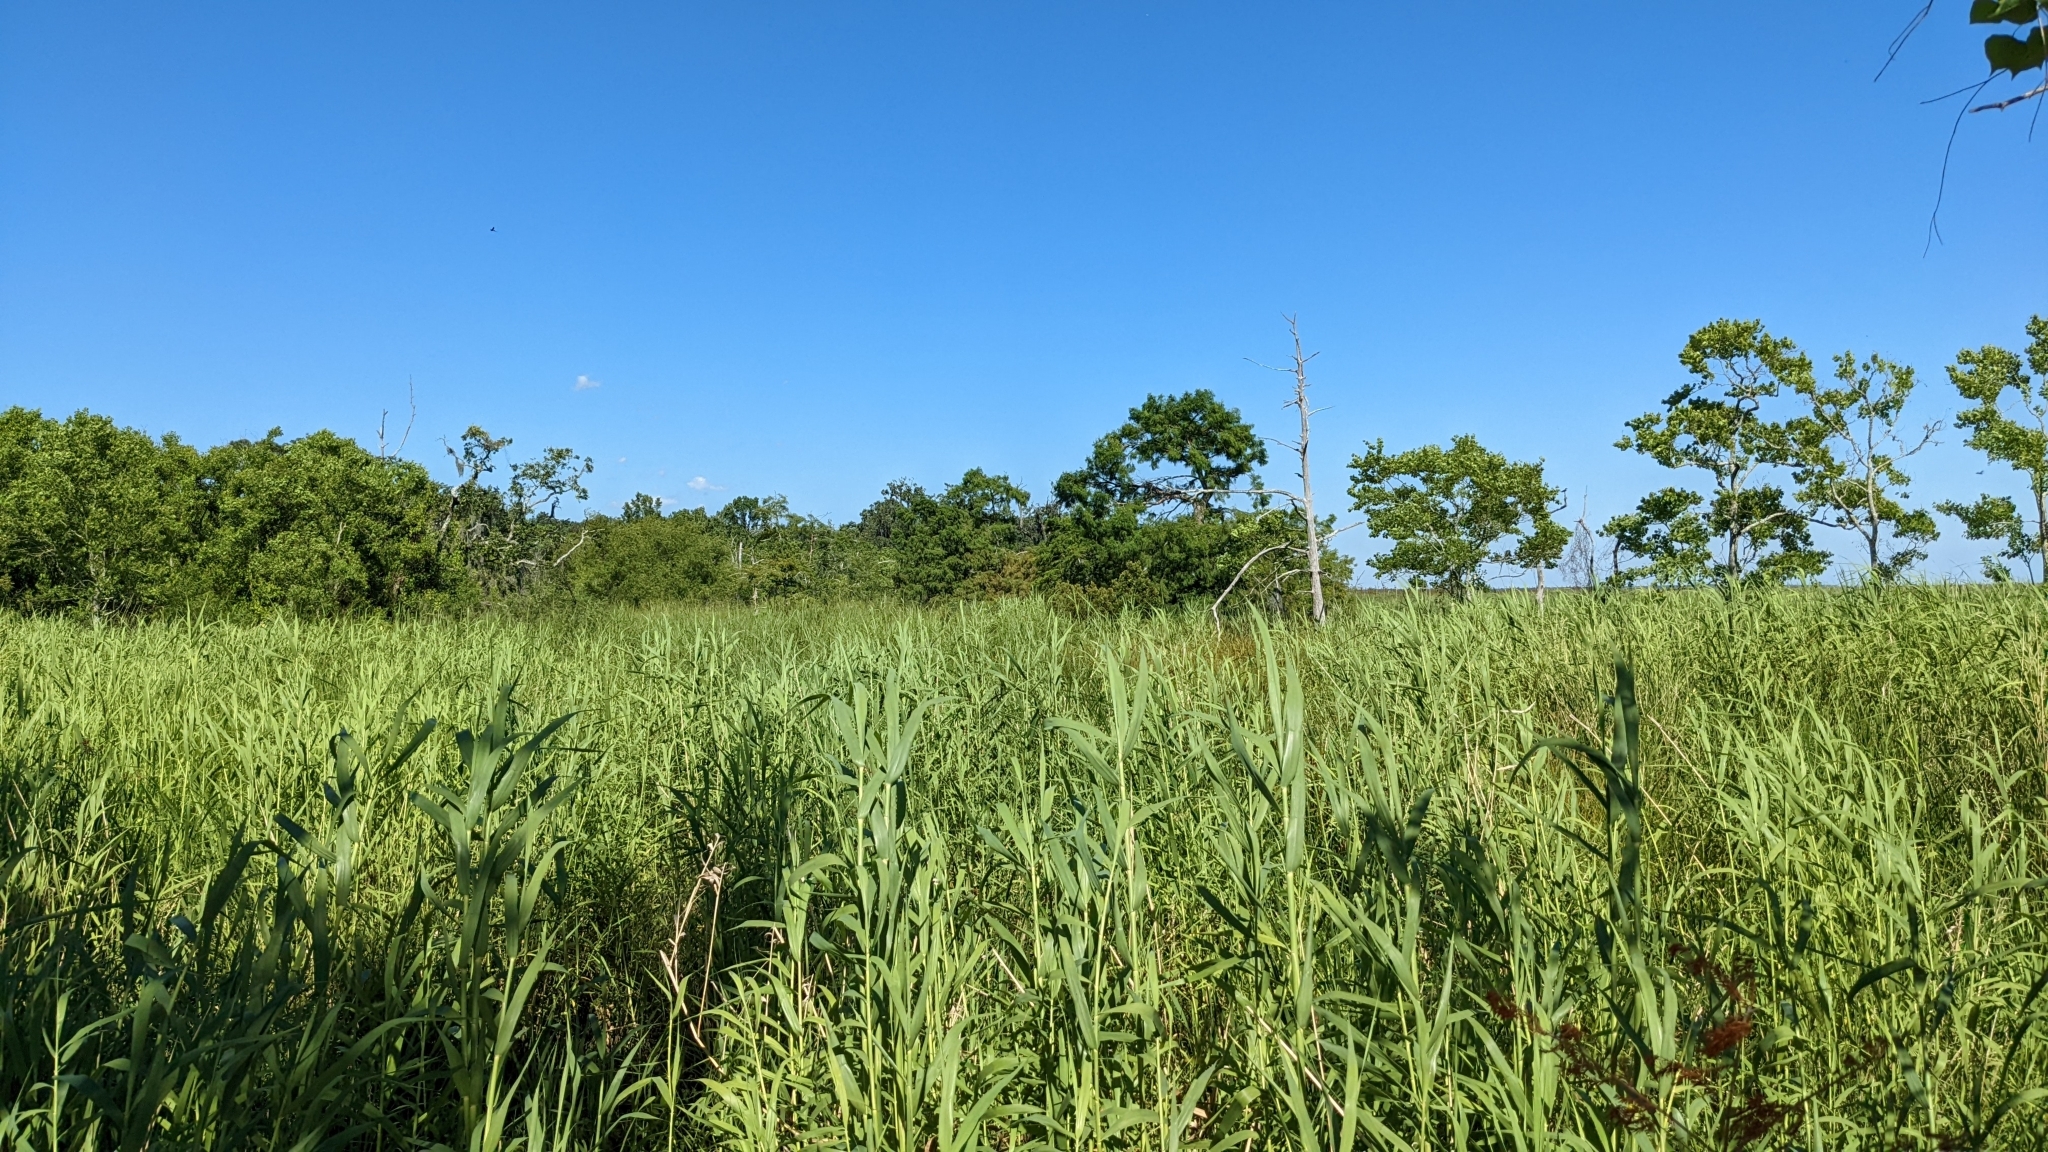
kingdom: Animalia
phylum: Chordata
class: Aves
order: Passeriformes
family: Icteridae
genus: Agelaius
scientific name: Agelaius phoeniceus
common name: Red-winged blackbird
